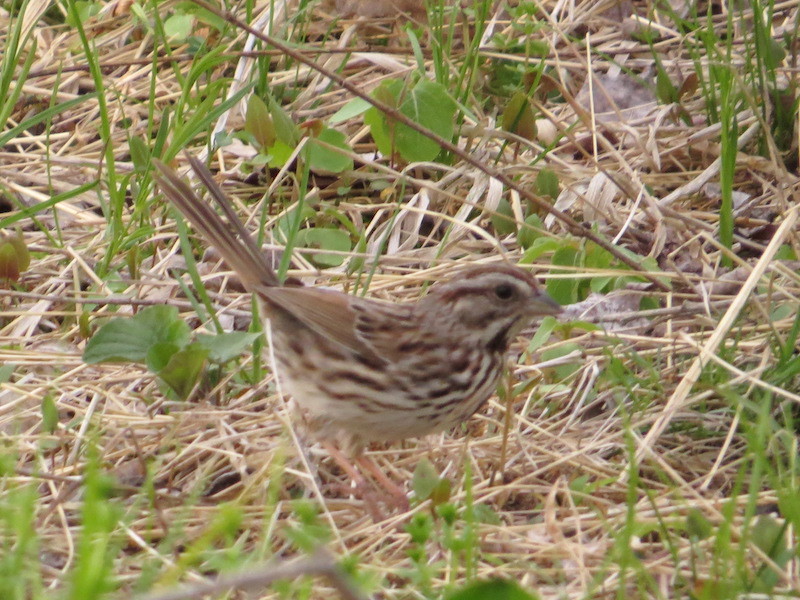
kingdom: Animalia
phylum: Chordata
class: Aves
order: Passeriformes
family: Passerellidae
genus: Melospiza
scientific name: Melospiza melodia
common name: Song sparrow
